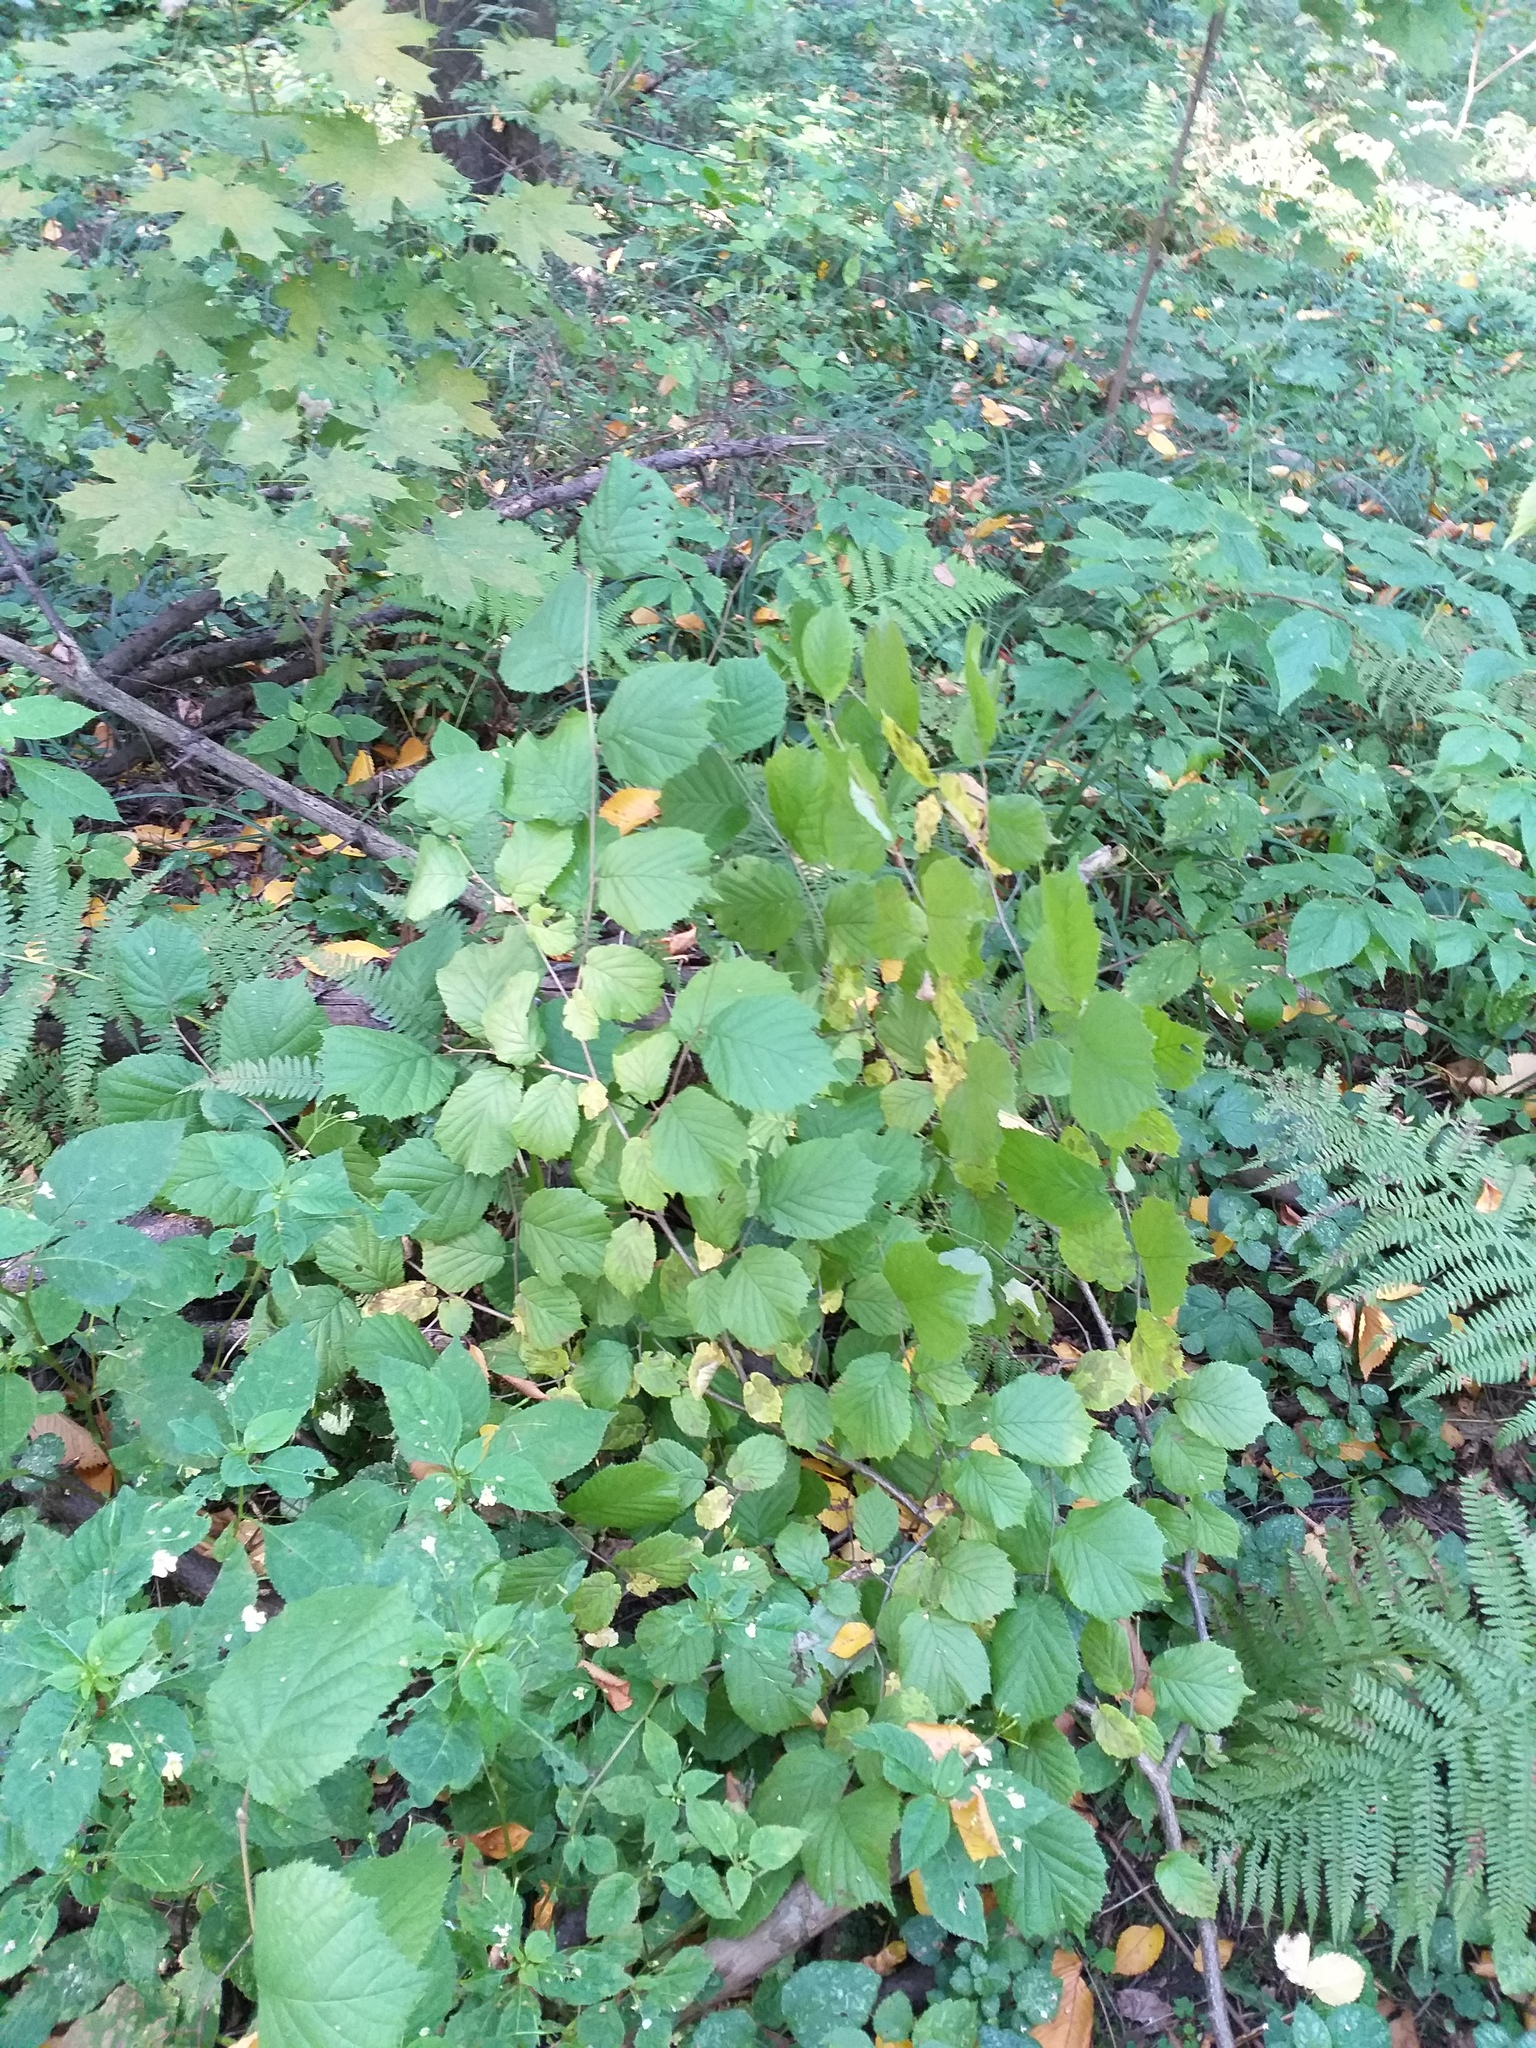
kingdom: Plantae
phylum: Tracheophyta
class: Magnoliopsida
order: Fagales
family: Betulaceae
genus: Corylus
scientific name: Corylus avellana
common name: European hazel
